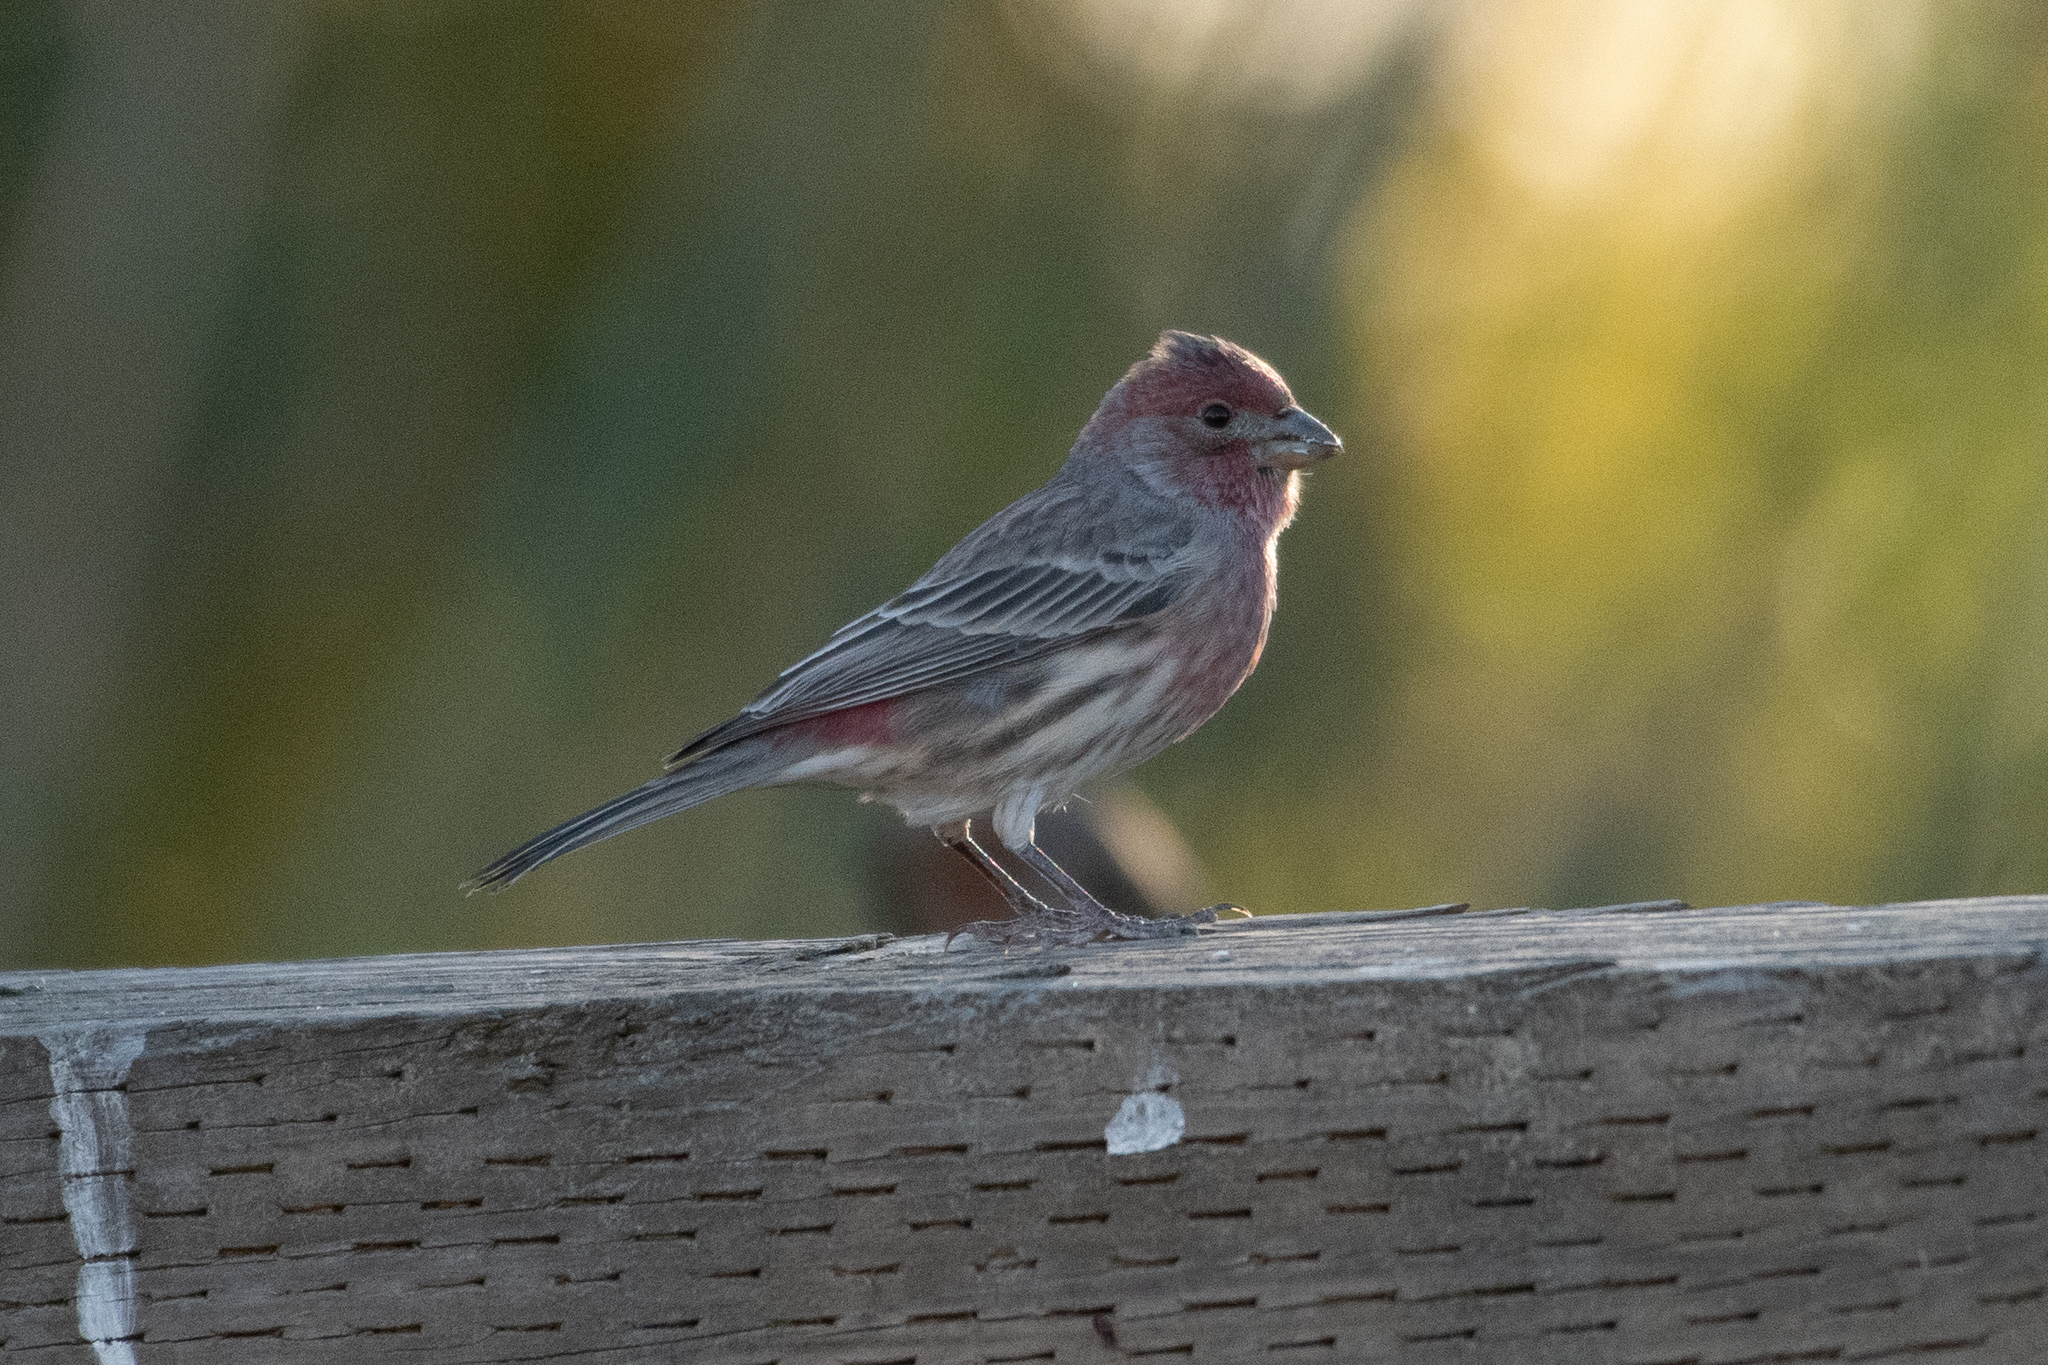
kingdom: Animalia
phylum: Chordata
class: Aves
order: Passeriformes
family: Fringillidae
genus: Haemorhous
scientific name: Haemorhous mexicanus
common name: House finch
